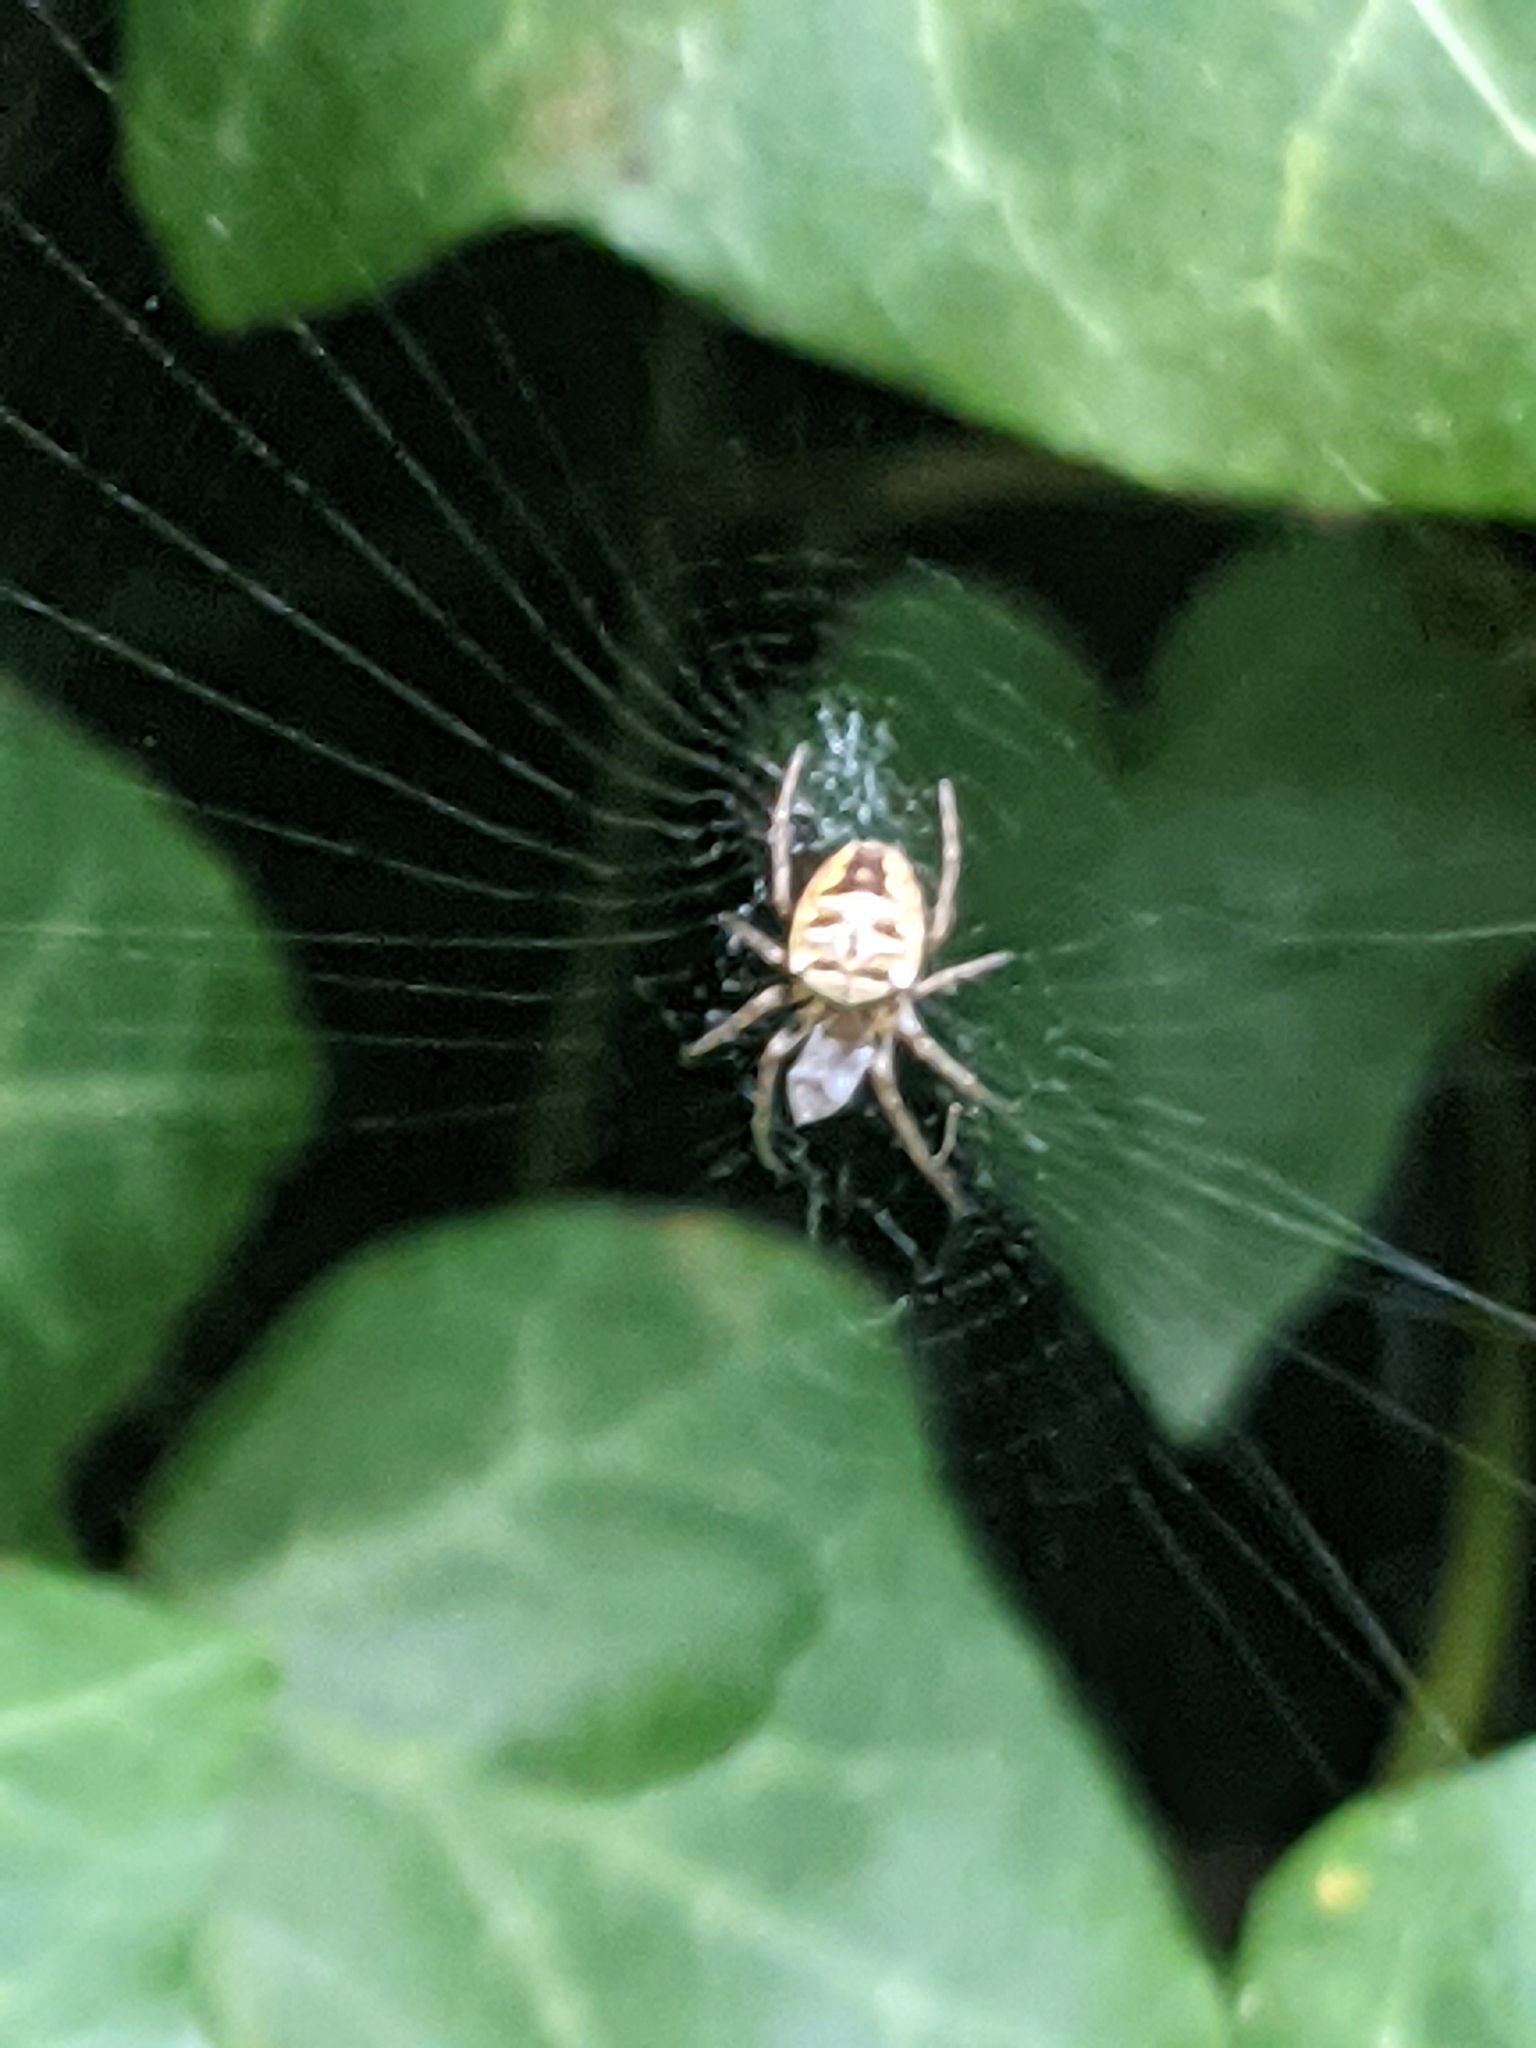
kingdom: Animalia
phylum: Arthropoda
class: Arachnida
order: Araneae
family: Araneidae
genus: Zilla
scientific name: Zilla diodia
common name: Zilla diodia
